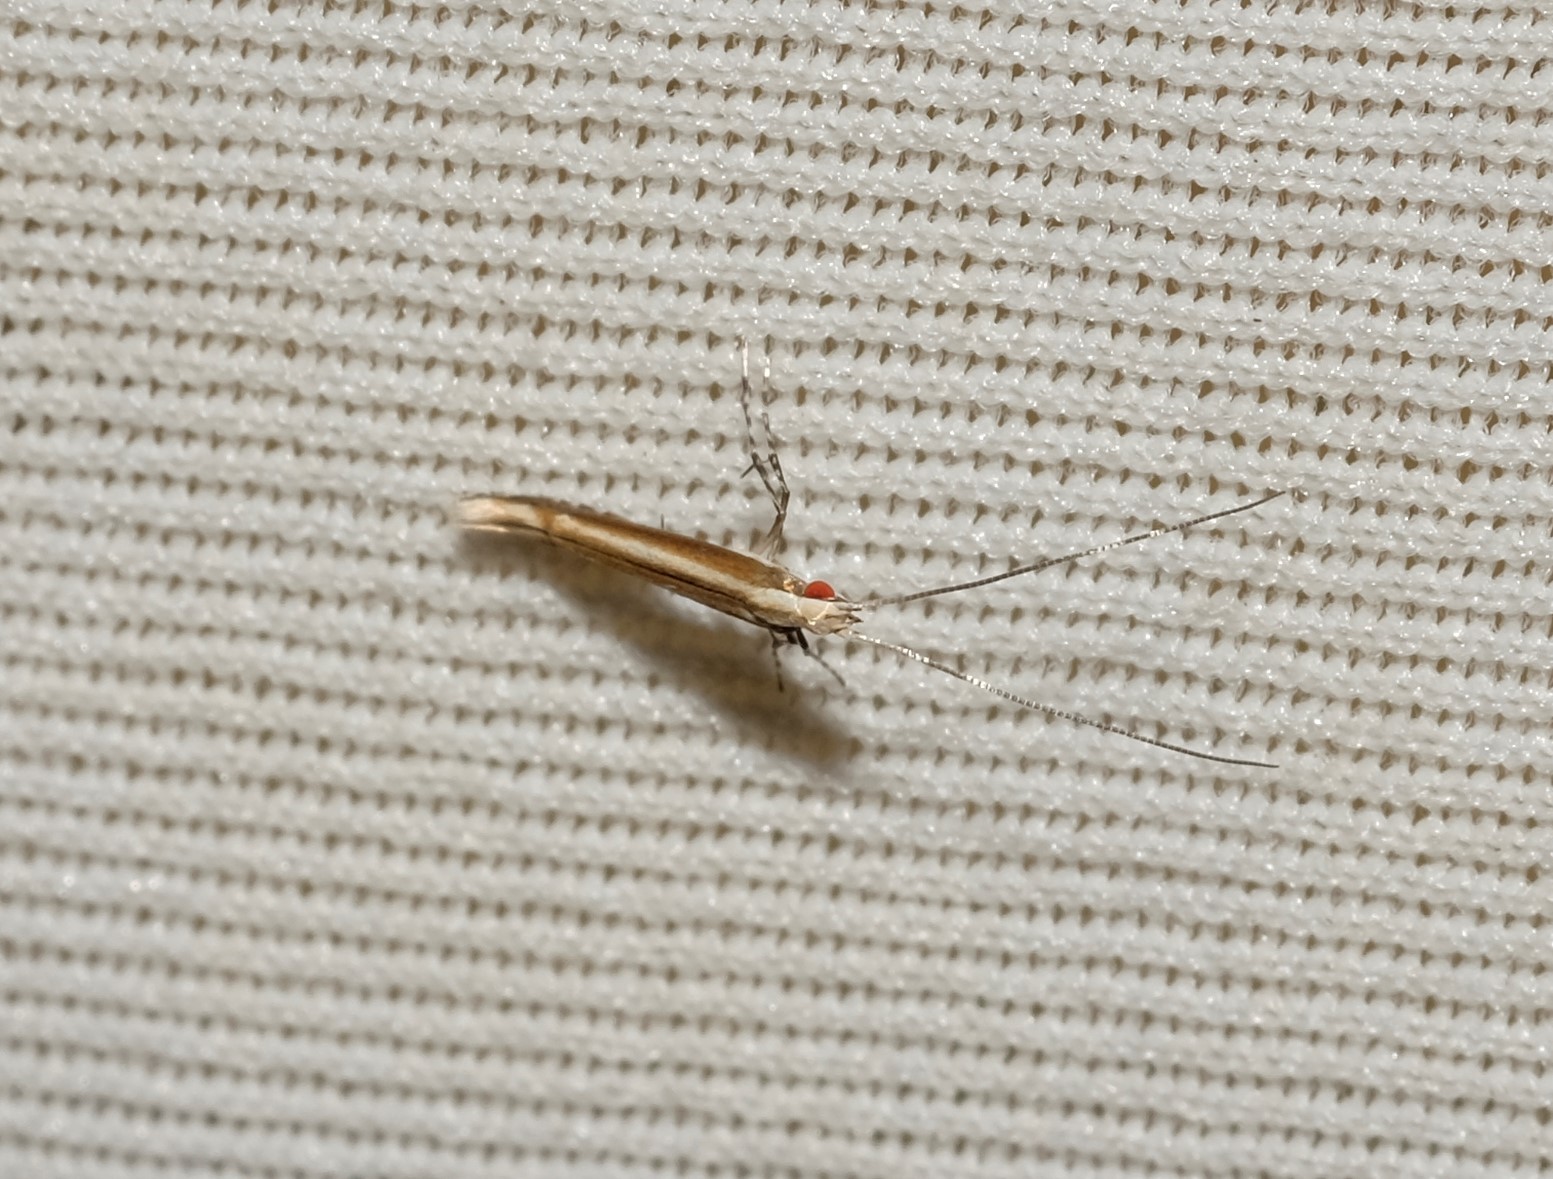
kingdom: Animalia
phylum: Arthropoda
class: Insecta
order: Lepidoptera
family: Gracillariidae
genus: Acrocercops
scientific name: Acrocercops laciniella
